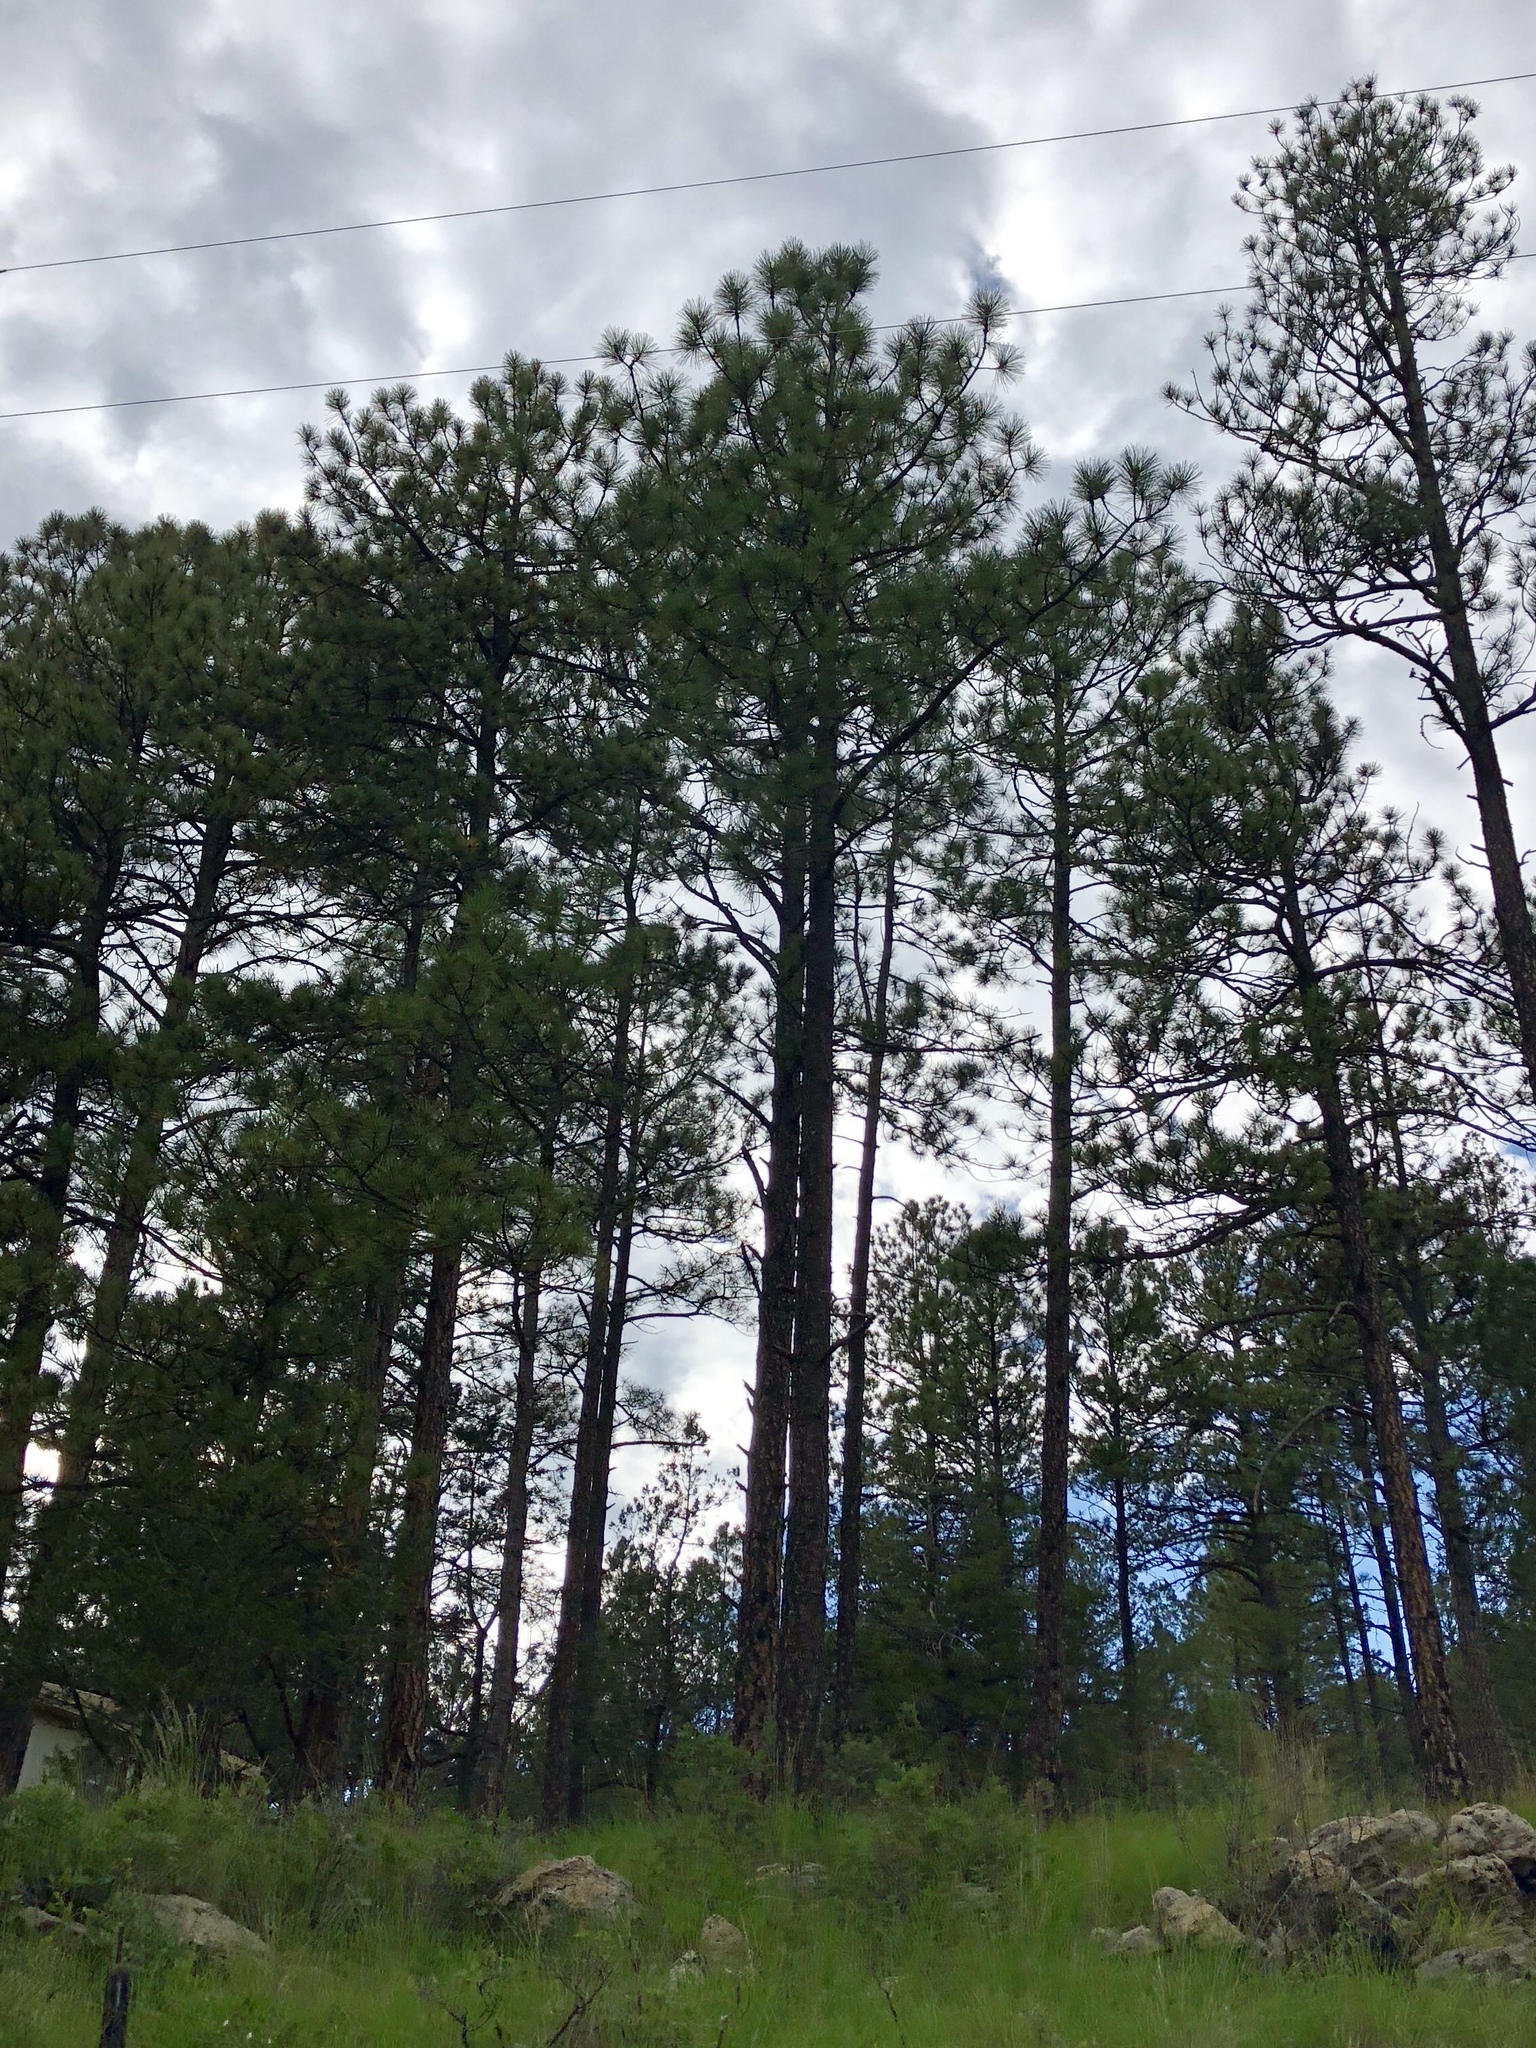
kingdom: Plantae
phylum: Tracheophyta
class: Pinopsida
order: Pinales
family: Pinaceae
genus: Pinus
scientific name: Pinus ponderosa
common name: Western yellow-pine
